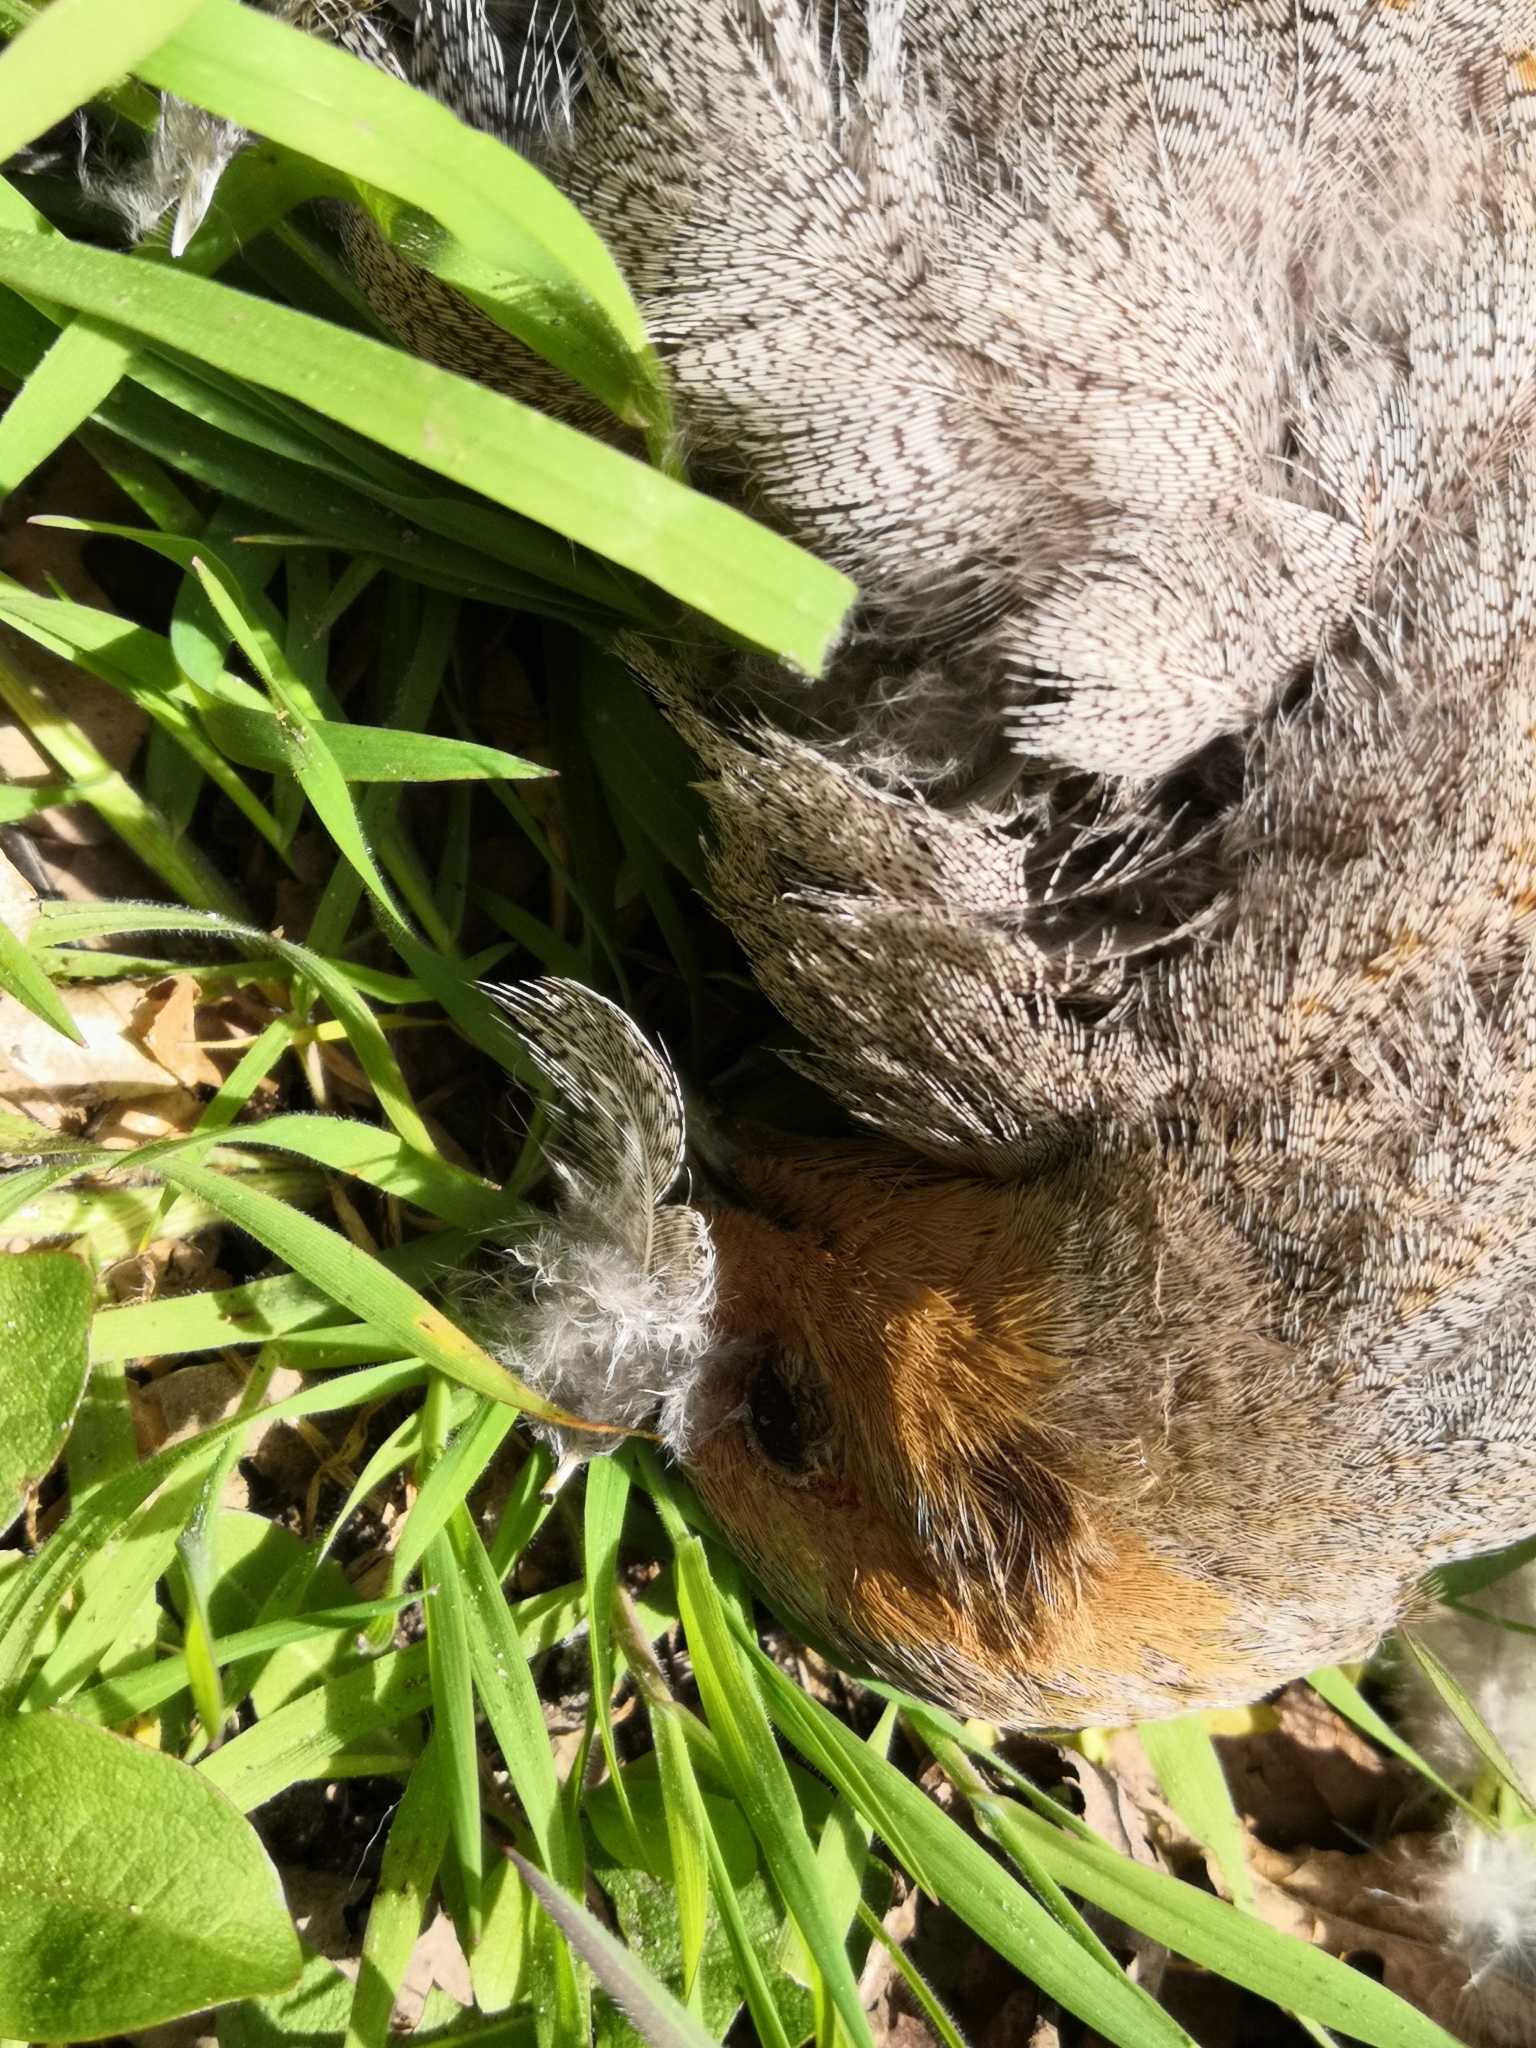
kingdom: Animalia
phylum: Chordata
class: Aves
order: Galliformes
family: Phasianidae
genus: Perdix
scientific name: Perdix perdix
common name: Grey partridge
